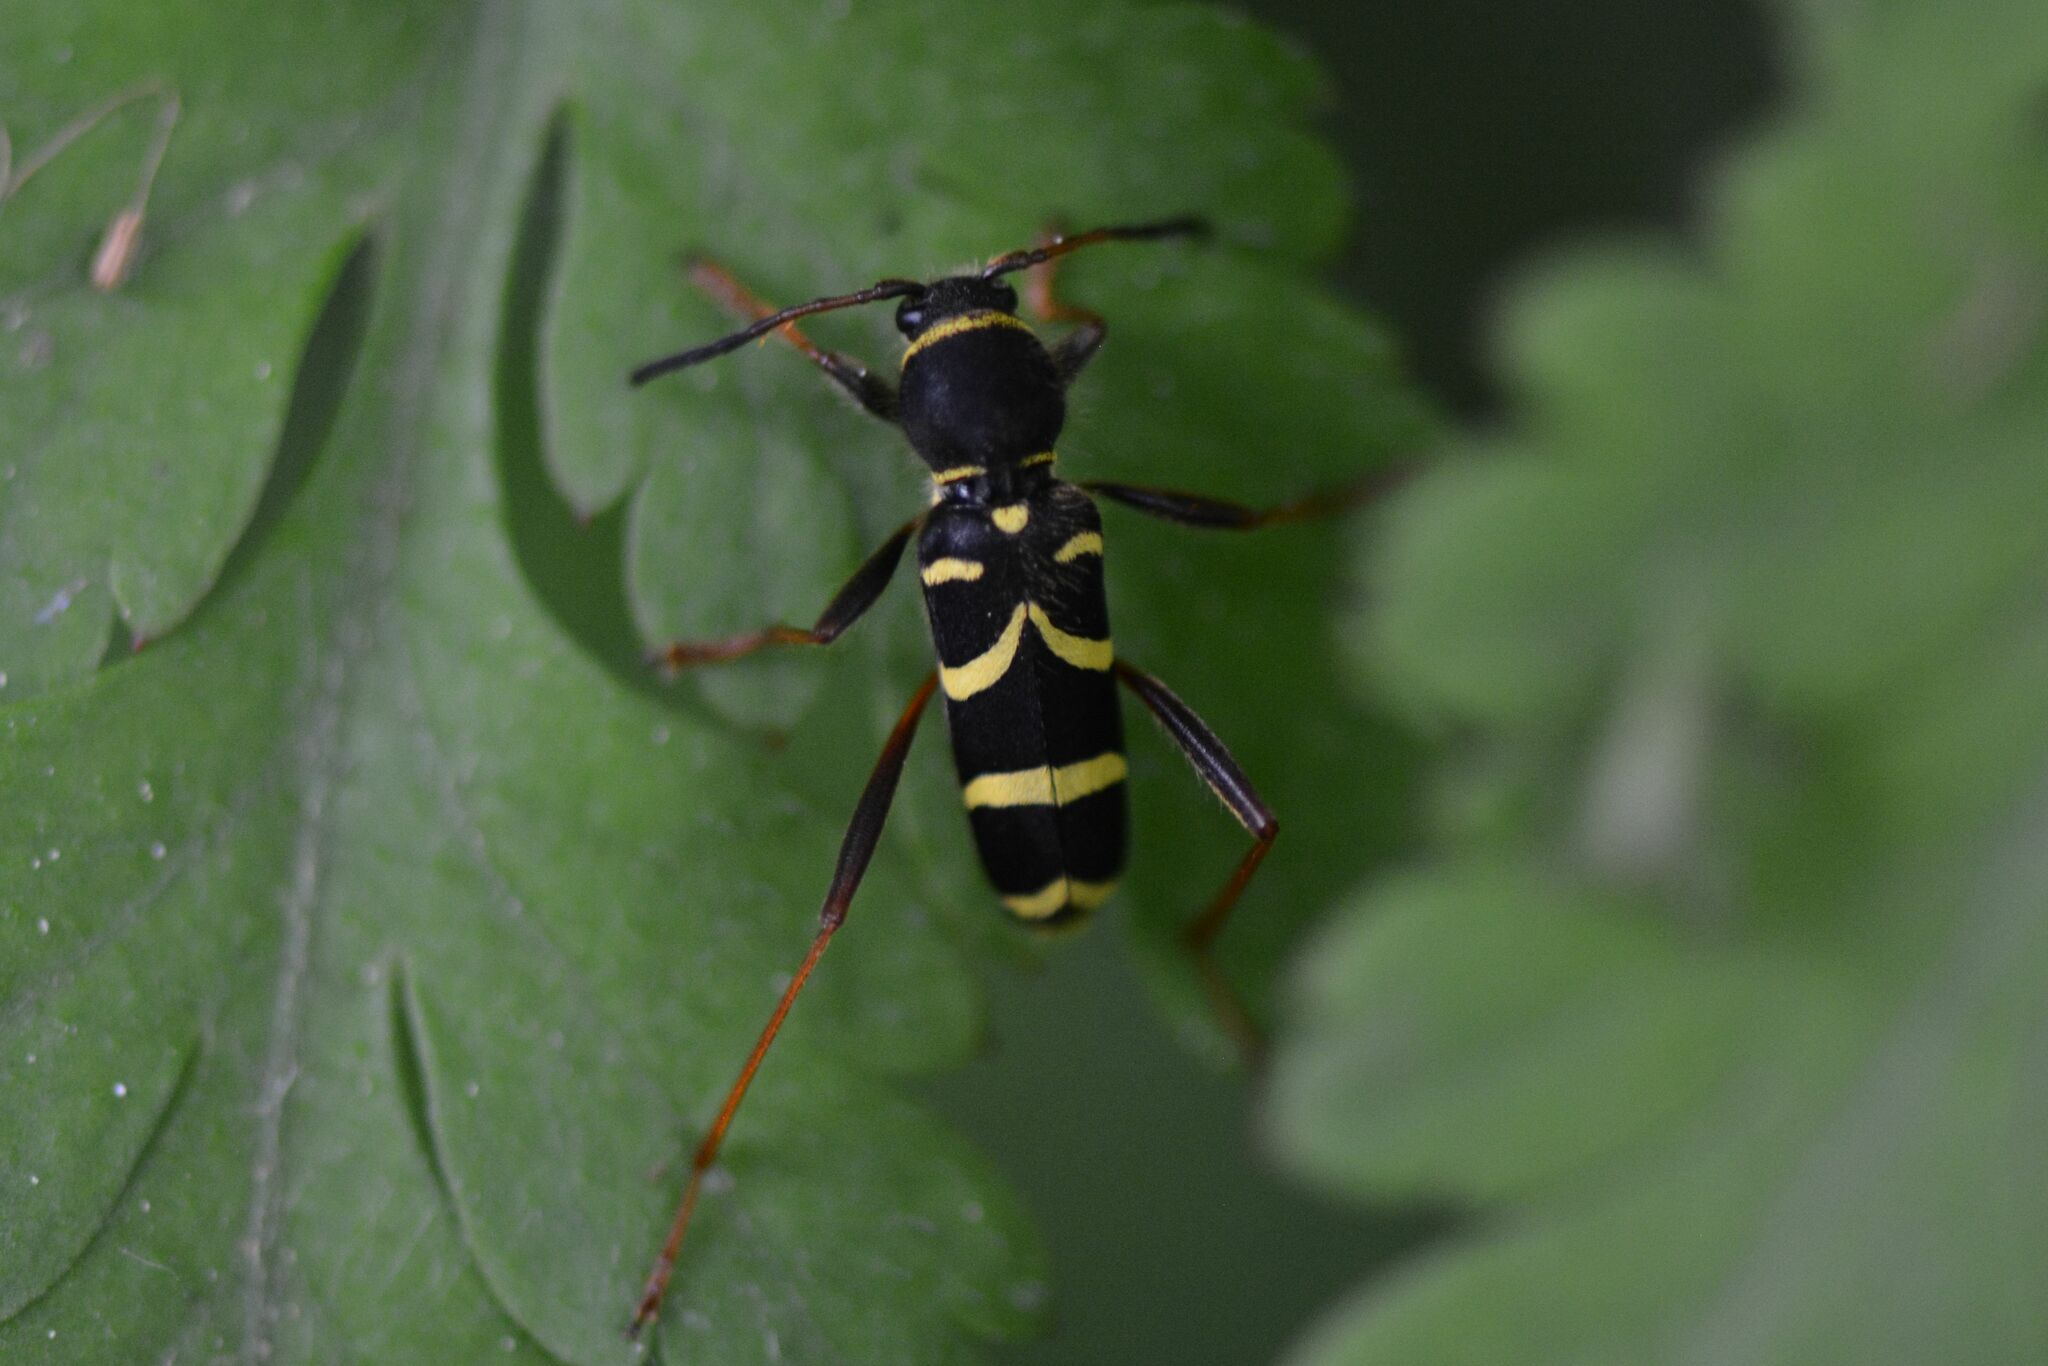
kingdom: Animalia
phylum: Arthropoda
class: Insecta
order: Coleoptera
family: Cerambycidae
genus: Clytus
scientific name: Clytus arietis
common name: Wasp beetle
